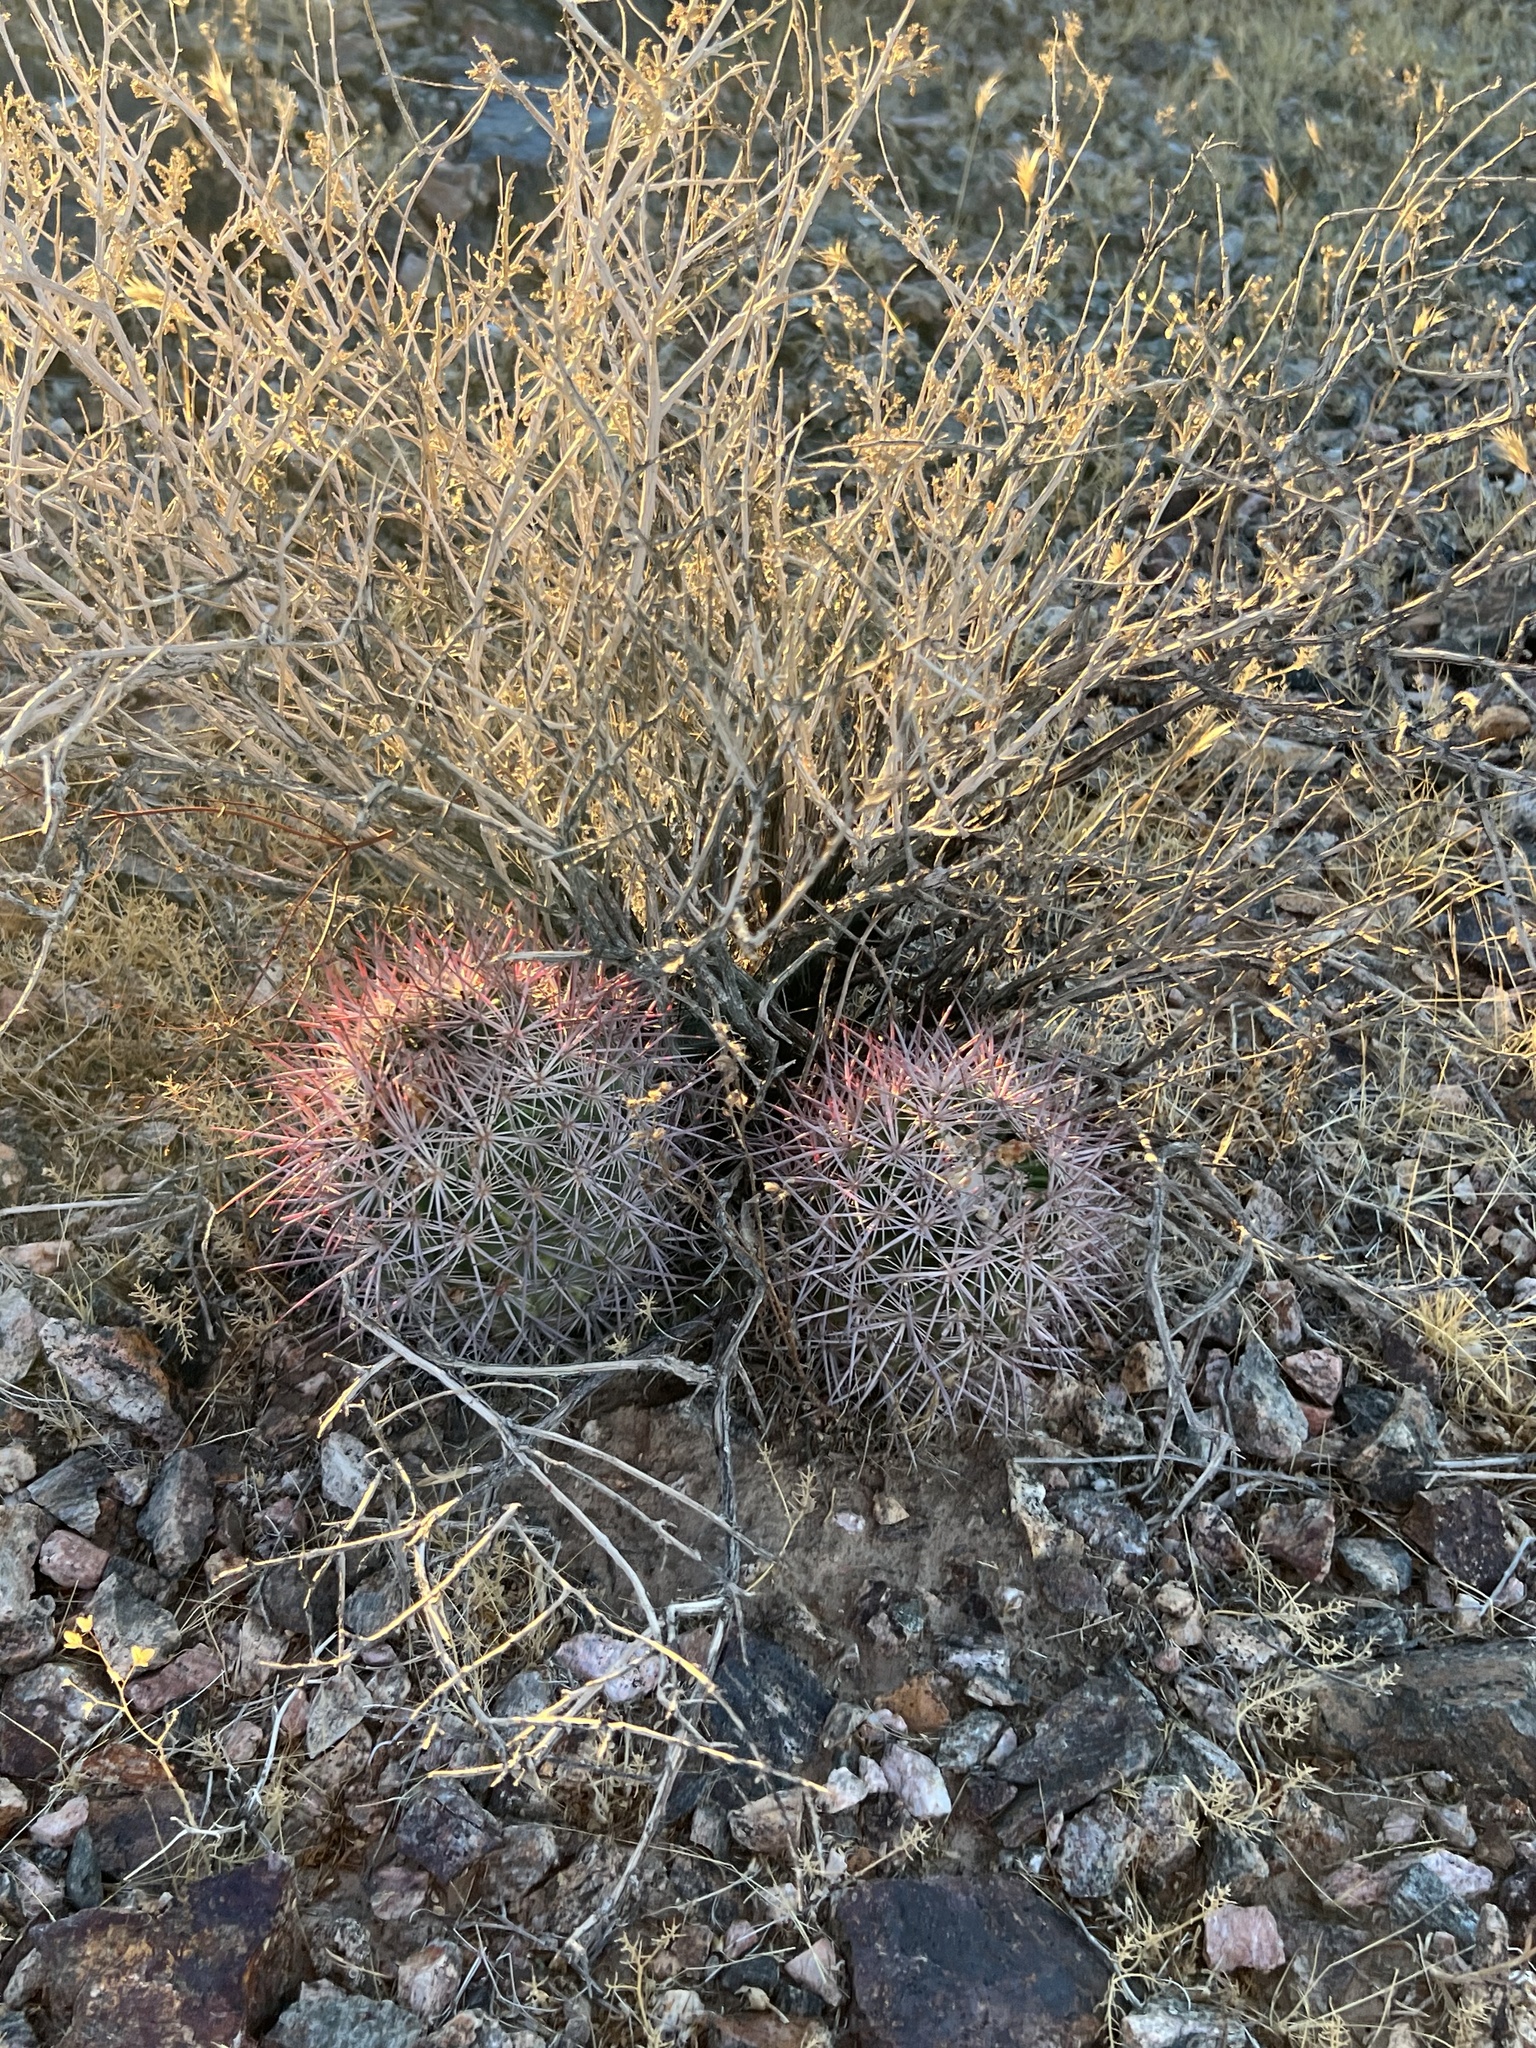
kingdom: Plantae
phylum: Tracheophyta
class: Magnoliopsida
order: Caryophyllales
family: Cactaceae
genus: Sclerocactus
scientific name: Sclerocactus johnsonii
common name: Eight-spine fishhook cactus
